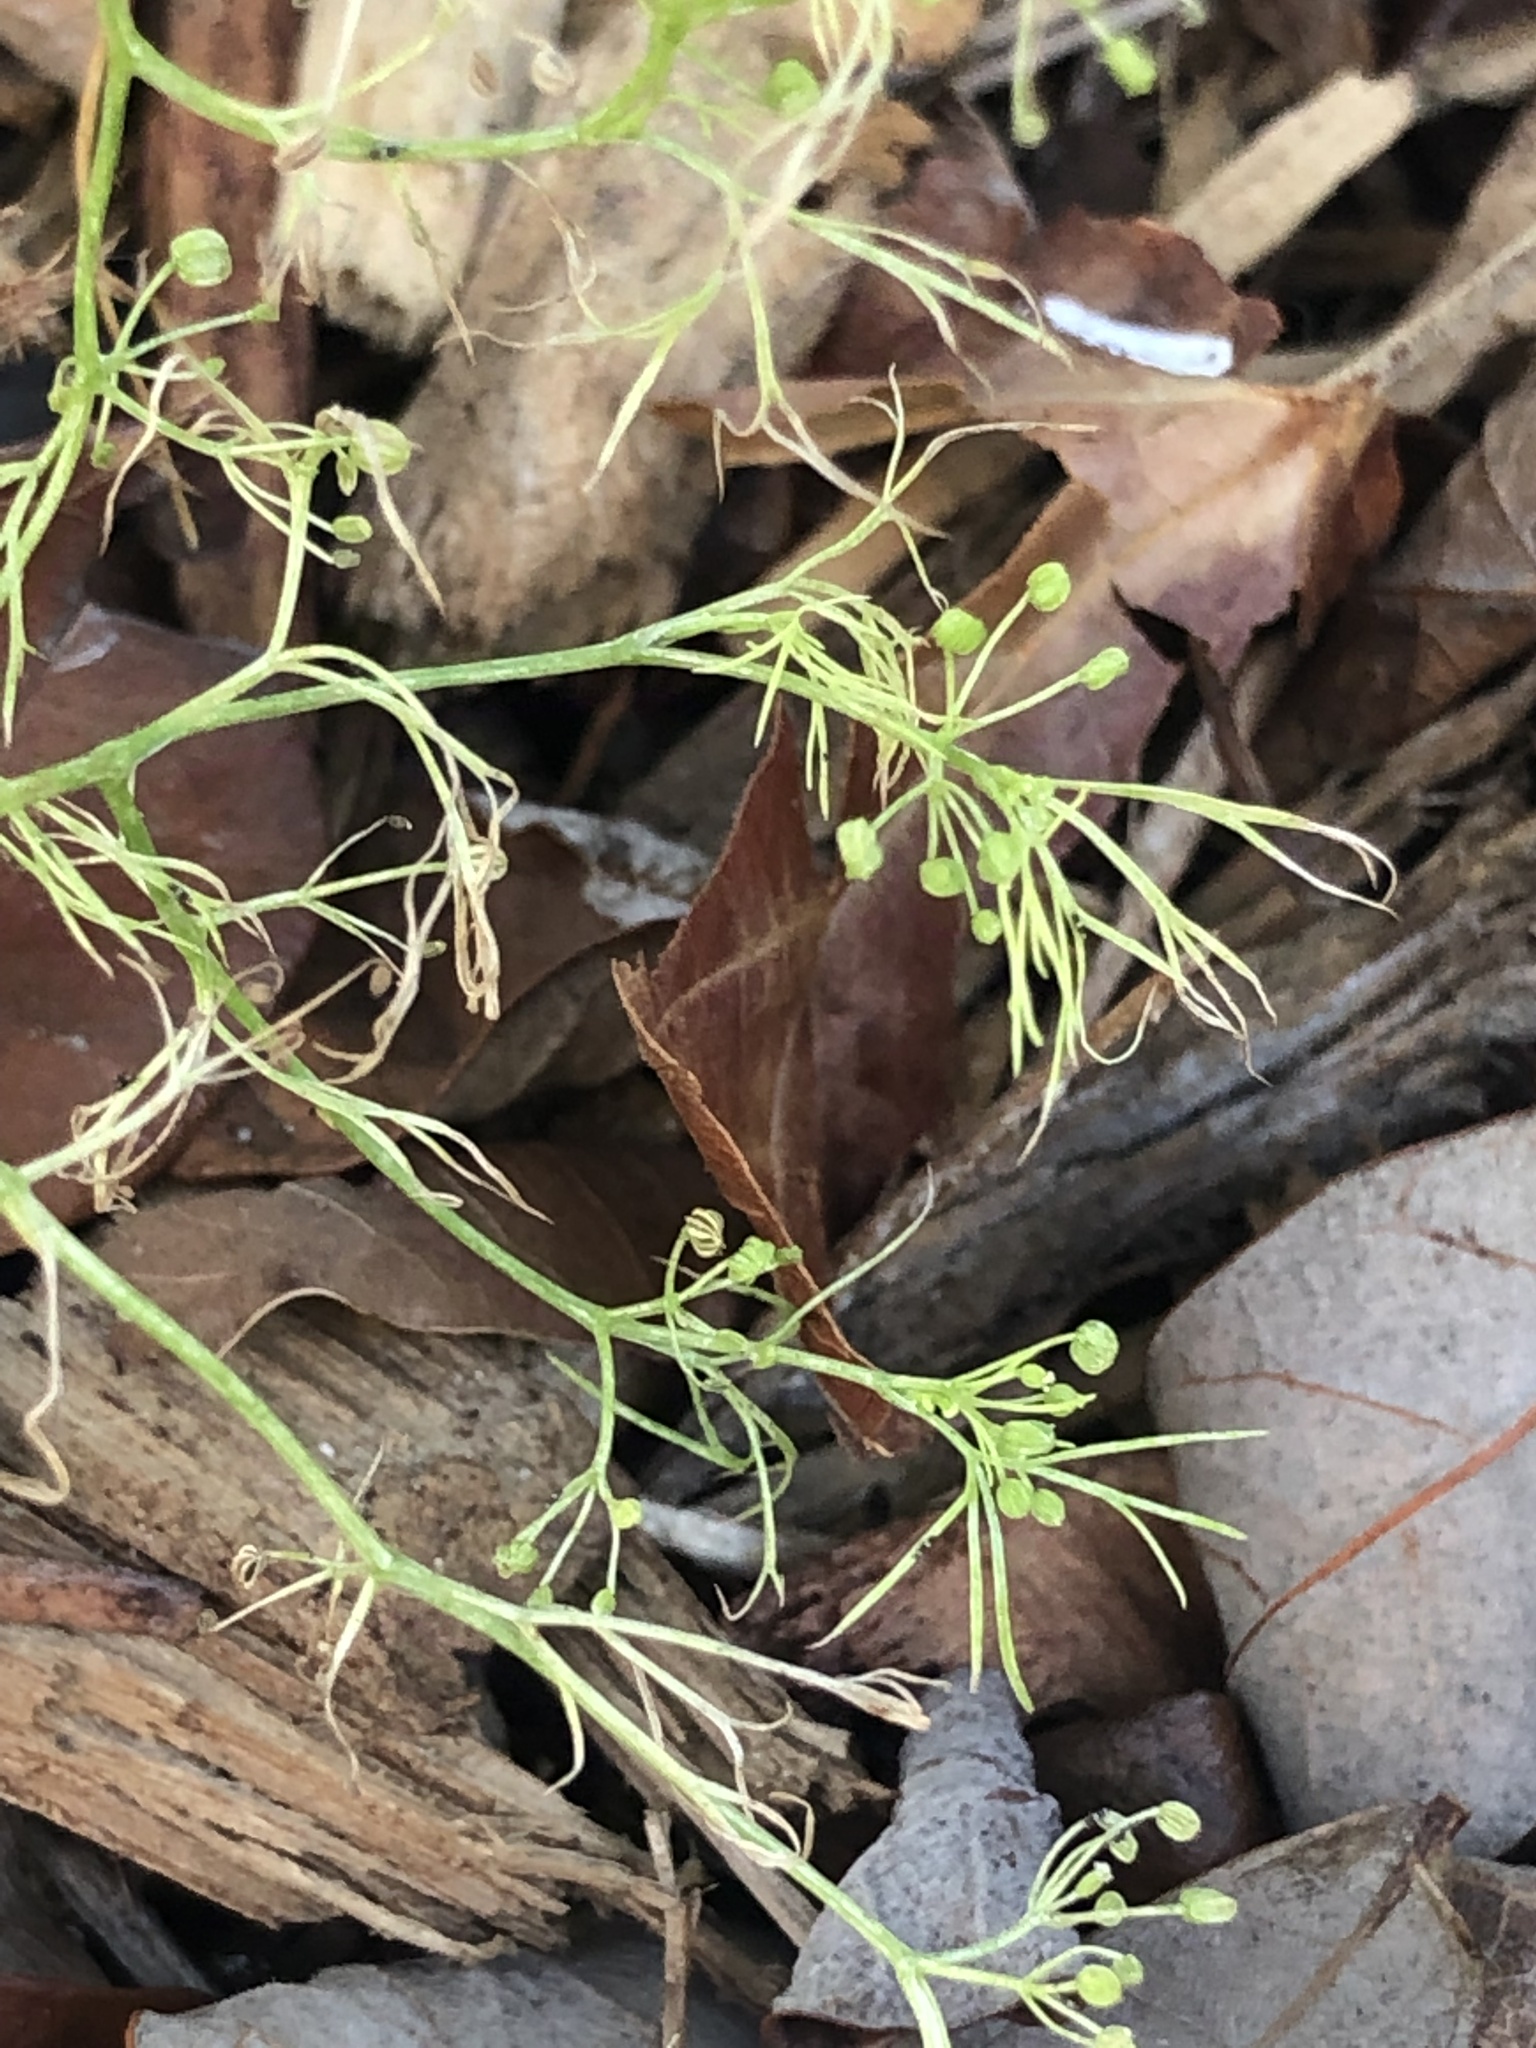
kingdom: Plantae
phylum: Tracheophyta
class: Magnoliopsida
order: Apiales
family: Apiaceae
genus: Cyclospermum
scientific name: Cyclospermum leptophyllum
